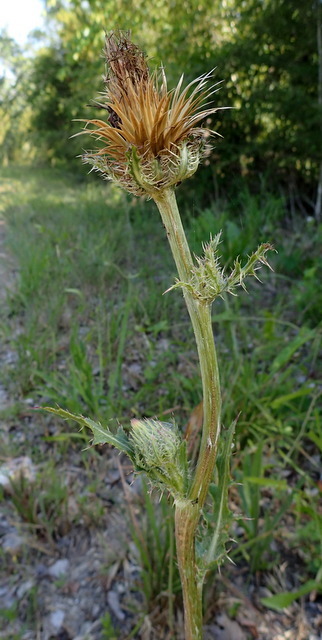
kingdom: Plantae
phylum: Tracheophyta
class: Magnoliopsida
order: Asterales
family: Asteraceae
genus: Cirsium
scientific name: Cirsium horridulum
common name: Bristly thistle
